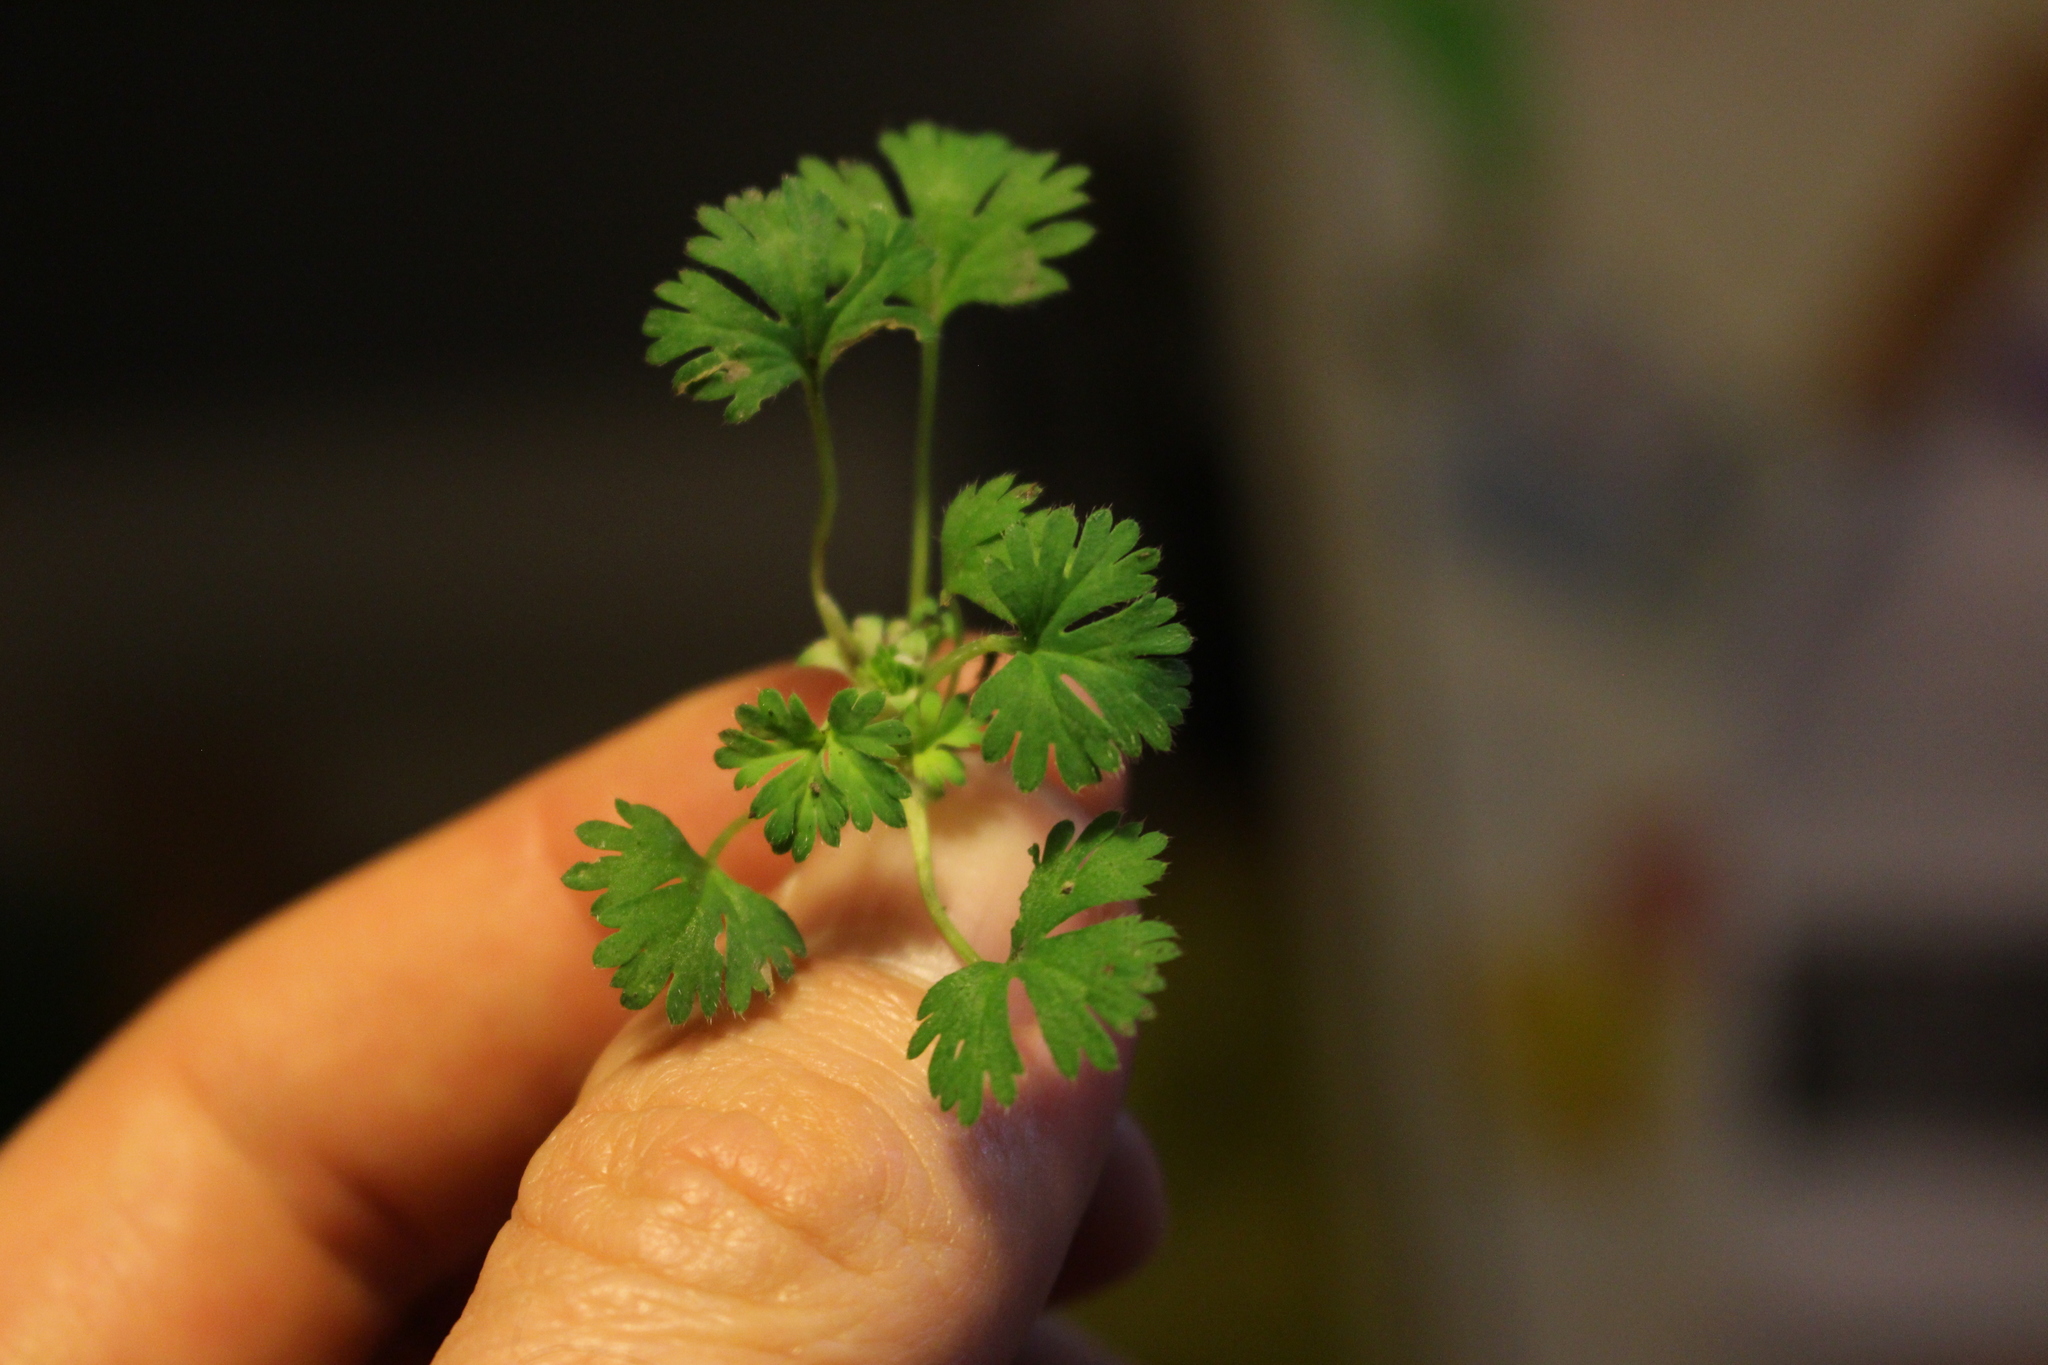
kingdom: Plantae
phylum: Tracheophyta
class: Magnoliopsida
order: Rosales
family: Rosaceae
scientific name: Rosaceae
